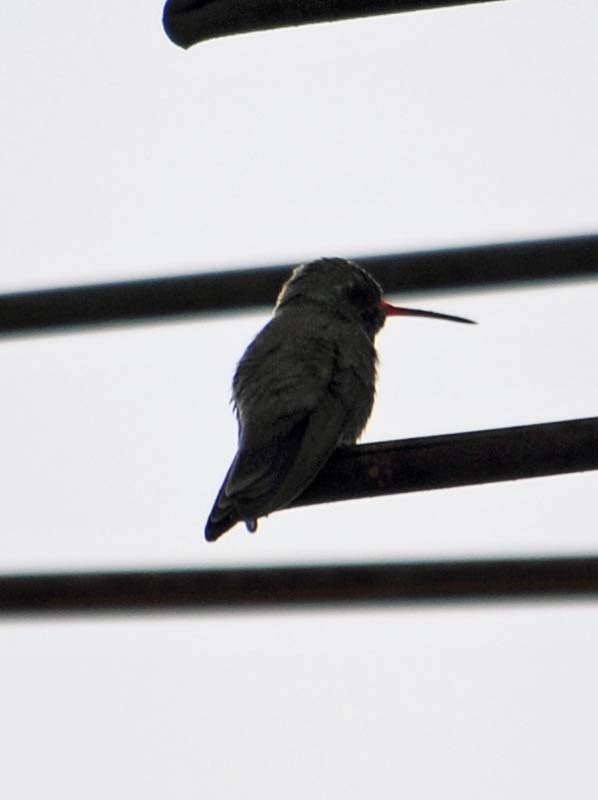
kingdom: Animalia
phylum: Chordata
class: Aves
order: Apodiformes
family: Trochilidae
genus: Cynanthus
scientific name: Cynanthus latirostris
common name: Broad-billed hummingbird
